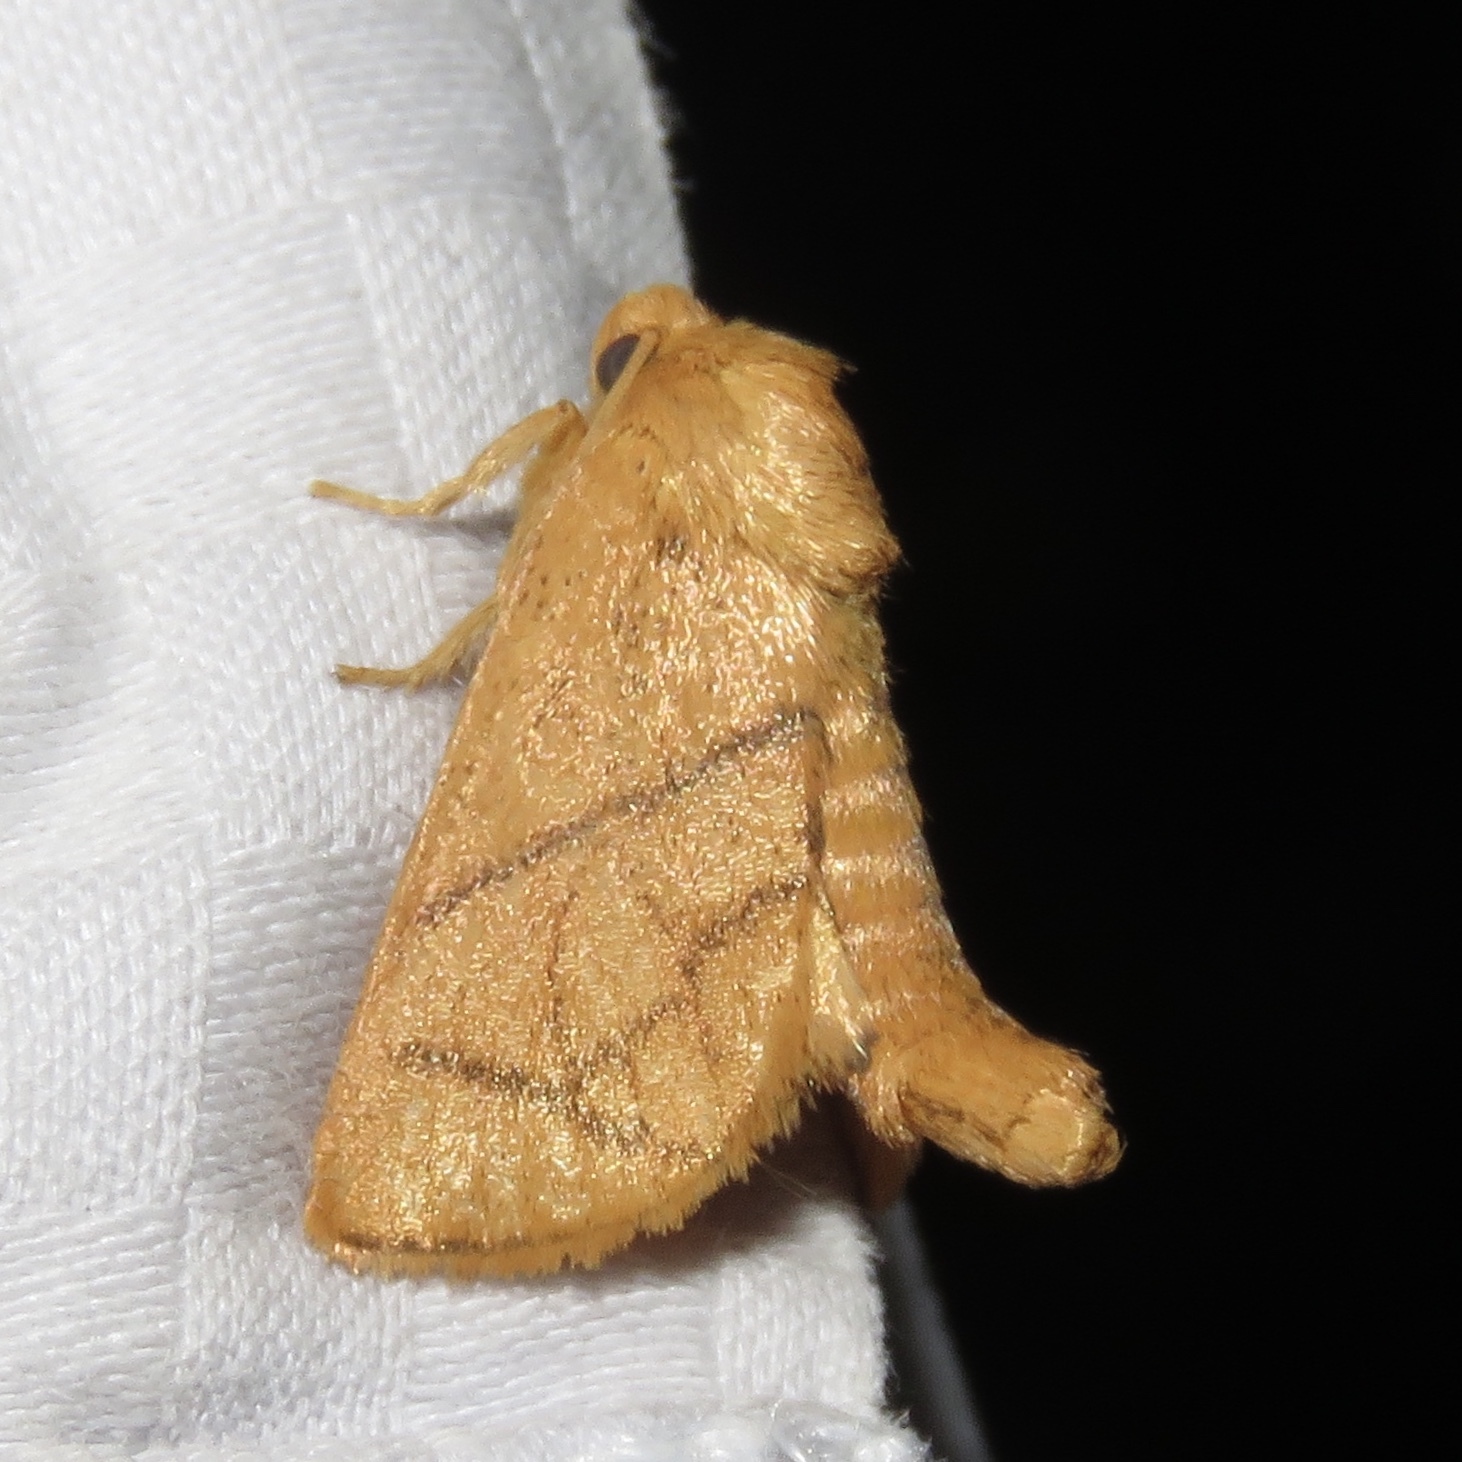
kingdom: Animalia
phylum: Arthropoda
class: Insecta
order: Lepidoptera
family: Limacodidae
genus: Apoda
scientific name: Apoda y-inversa
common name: Yellow-collared slug moth
